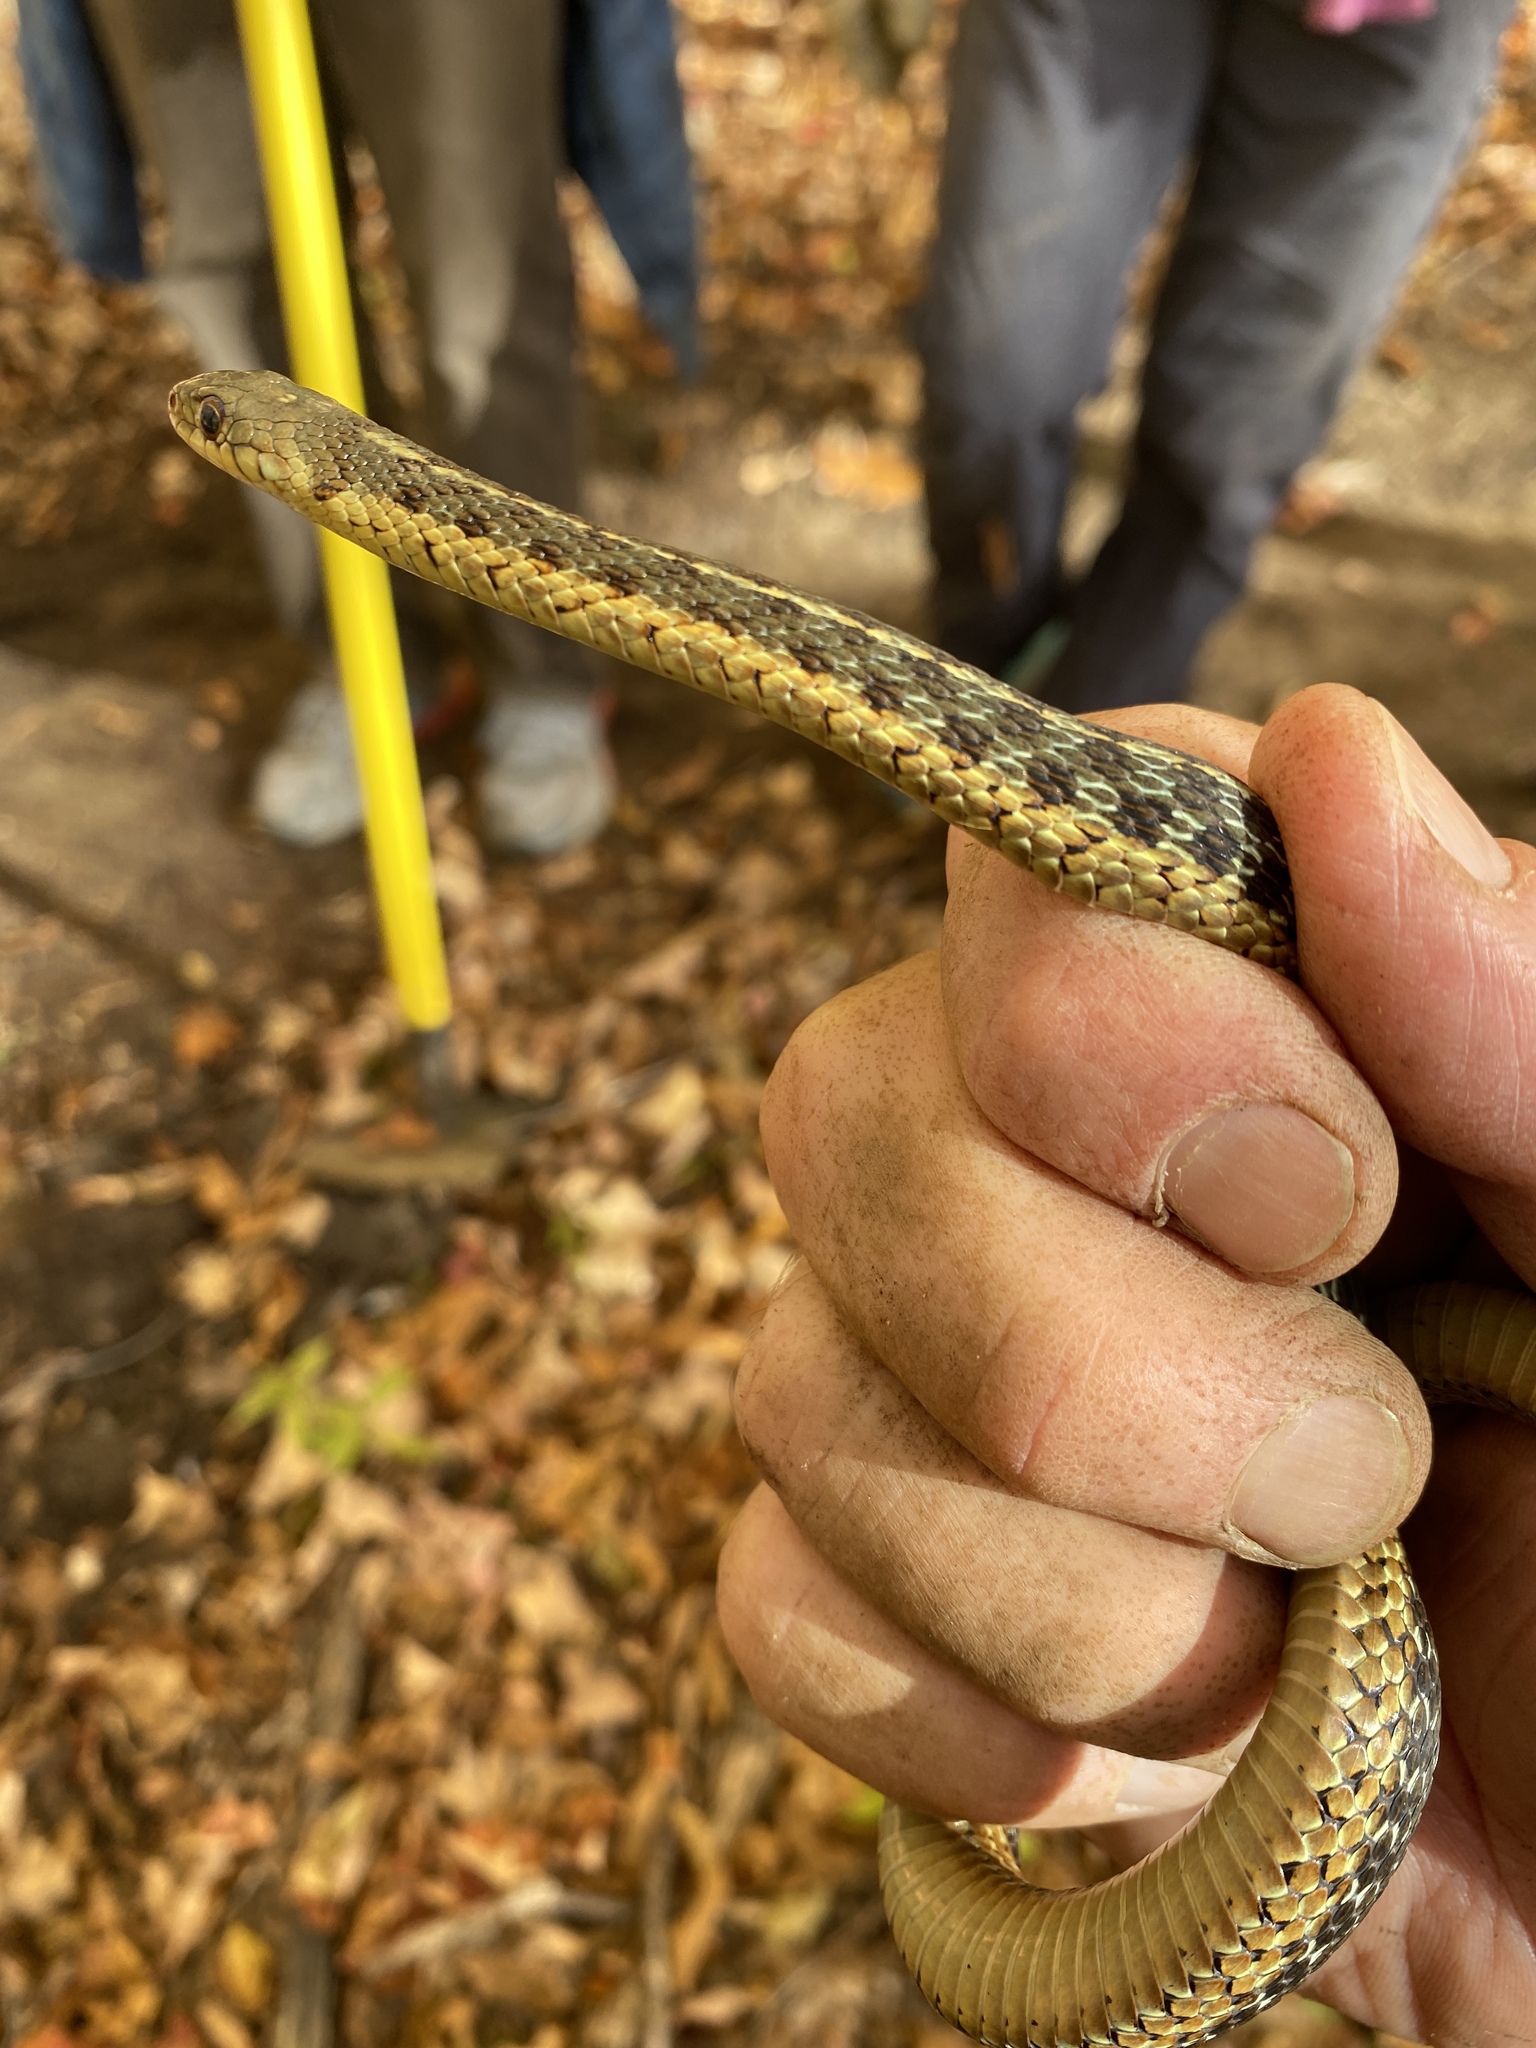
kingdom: Animalia
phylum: Chordata
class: Squamata
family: Colubridae
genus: Thamnophis
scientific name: Thamnophis sirtalis
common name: Common garter snake
